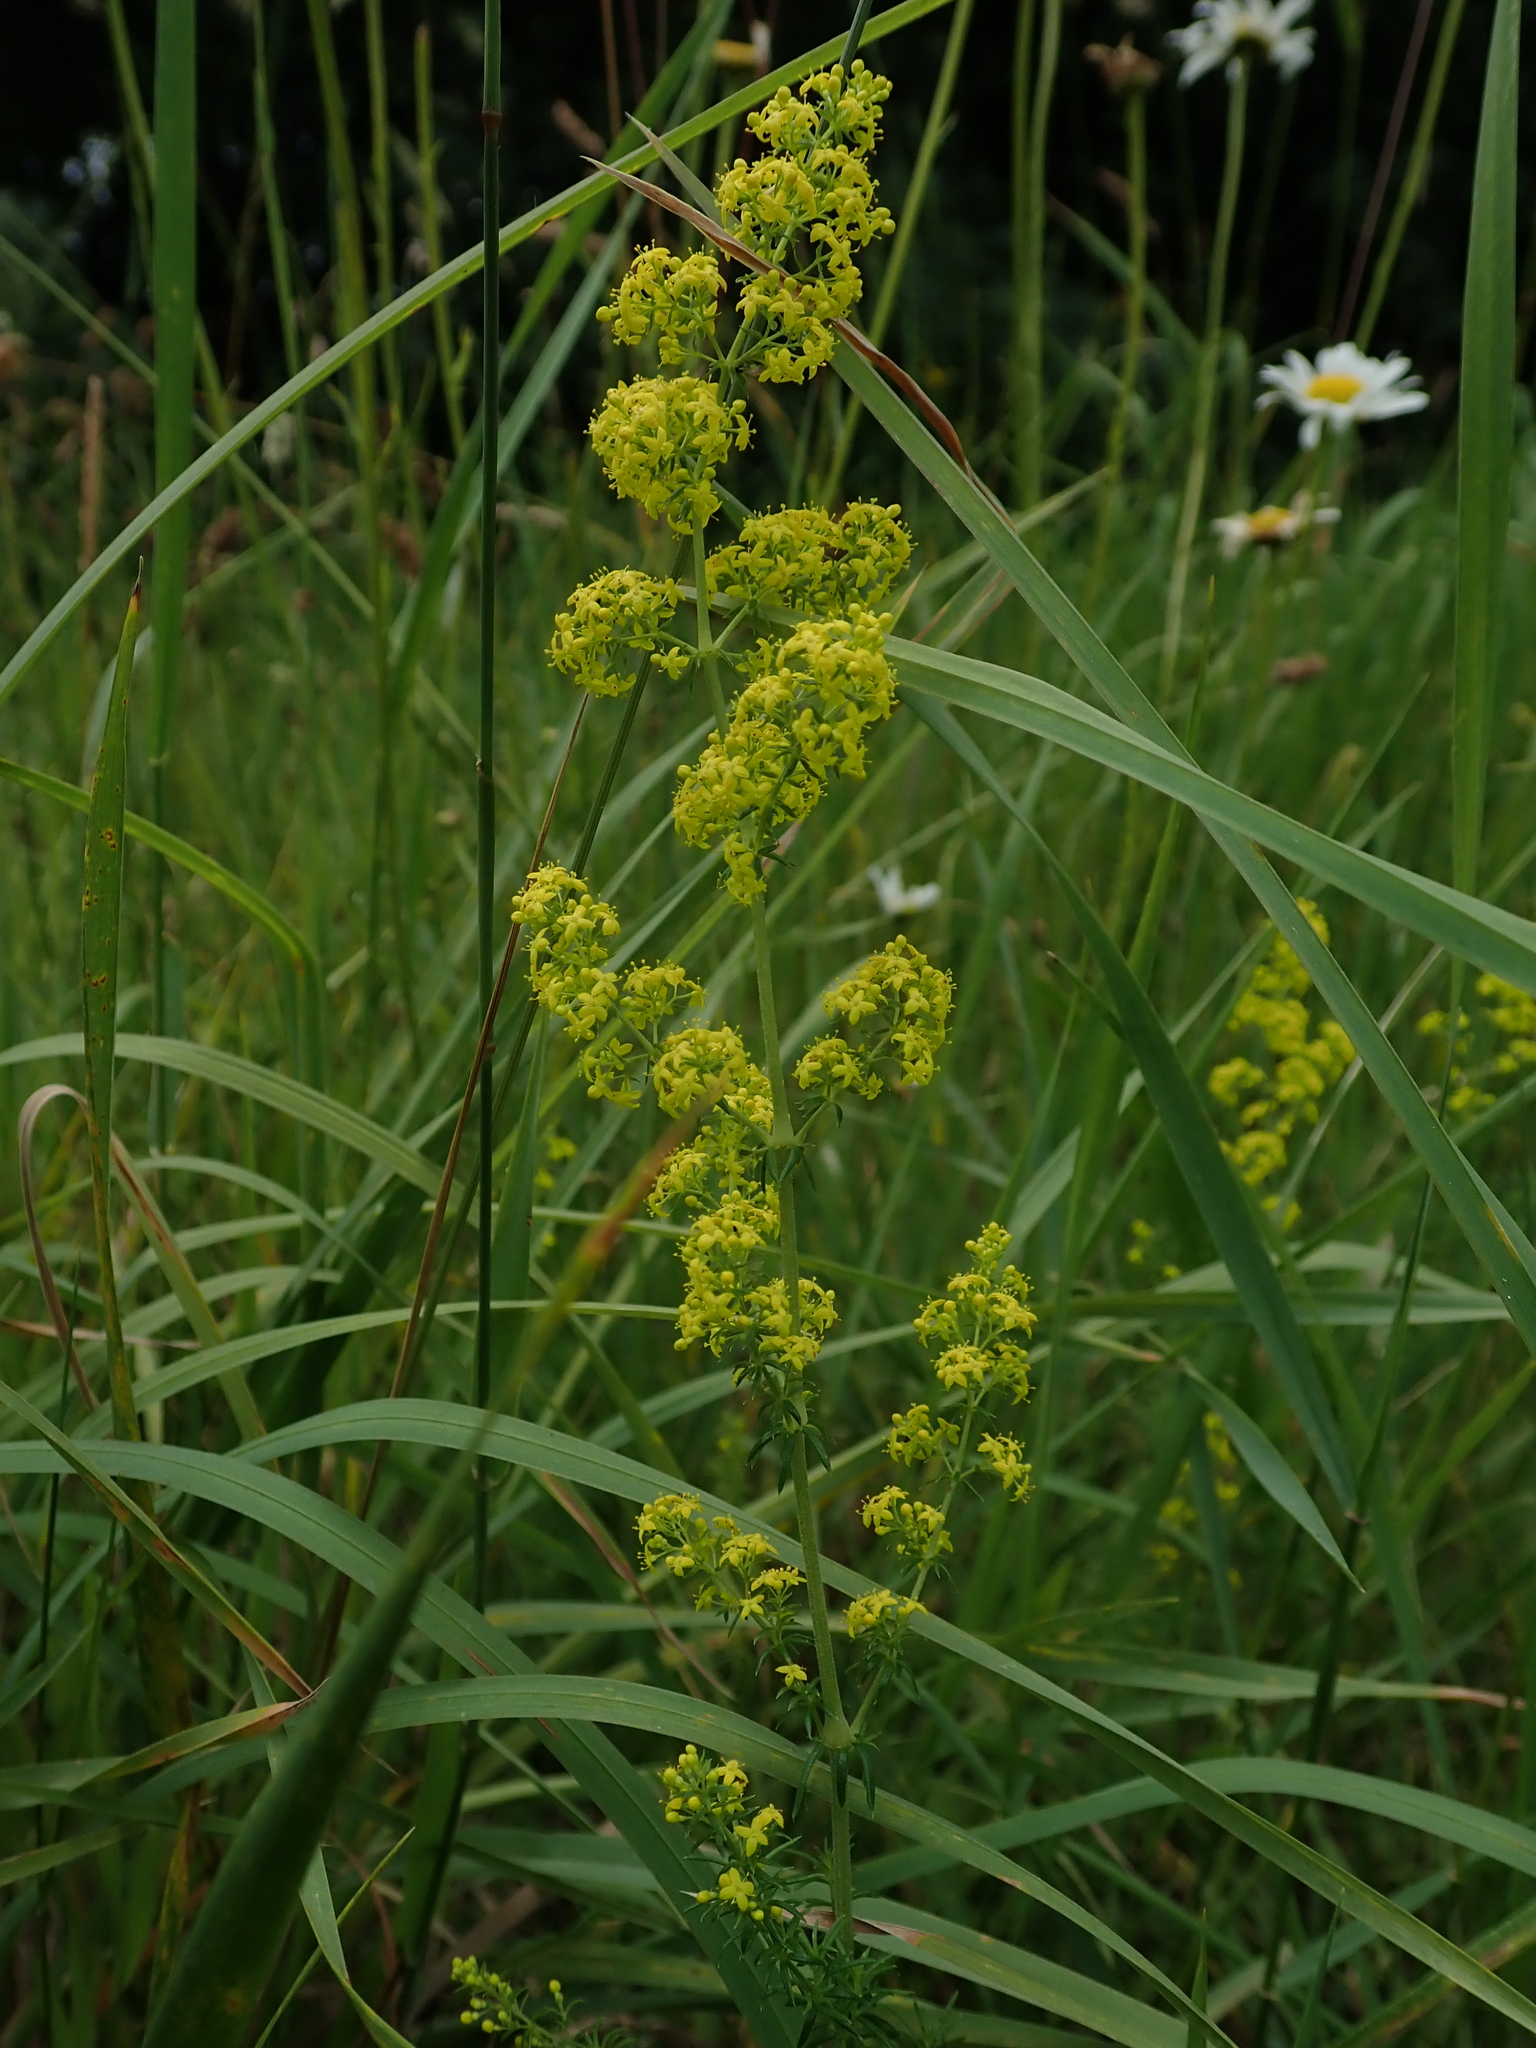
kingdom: Plantae
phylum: Tracheophyta
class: Magnoliopsida
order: Gentianales
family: Rubiaceae
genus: Galium
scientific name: Galium verum
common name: Lady's bedstraw
